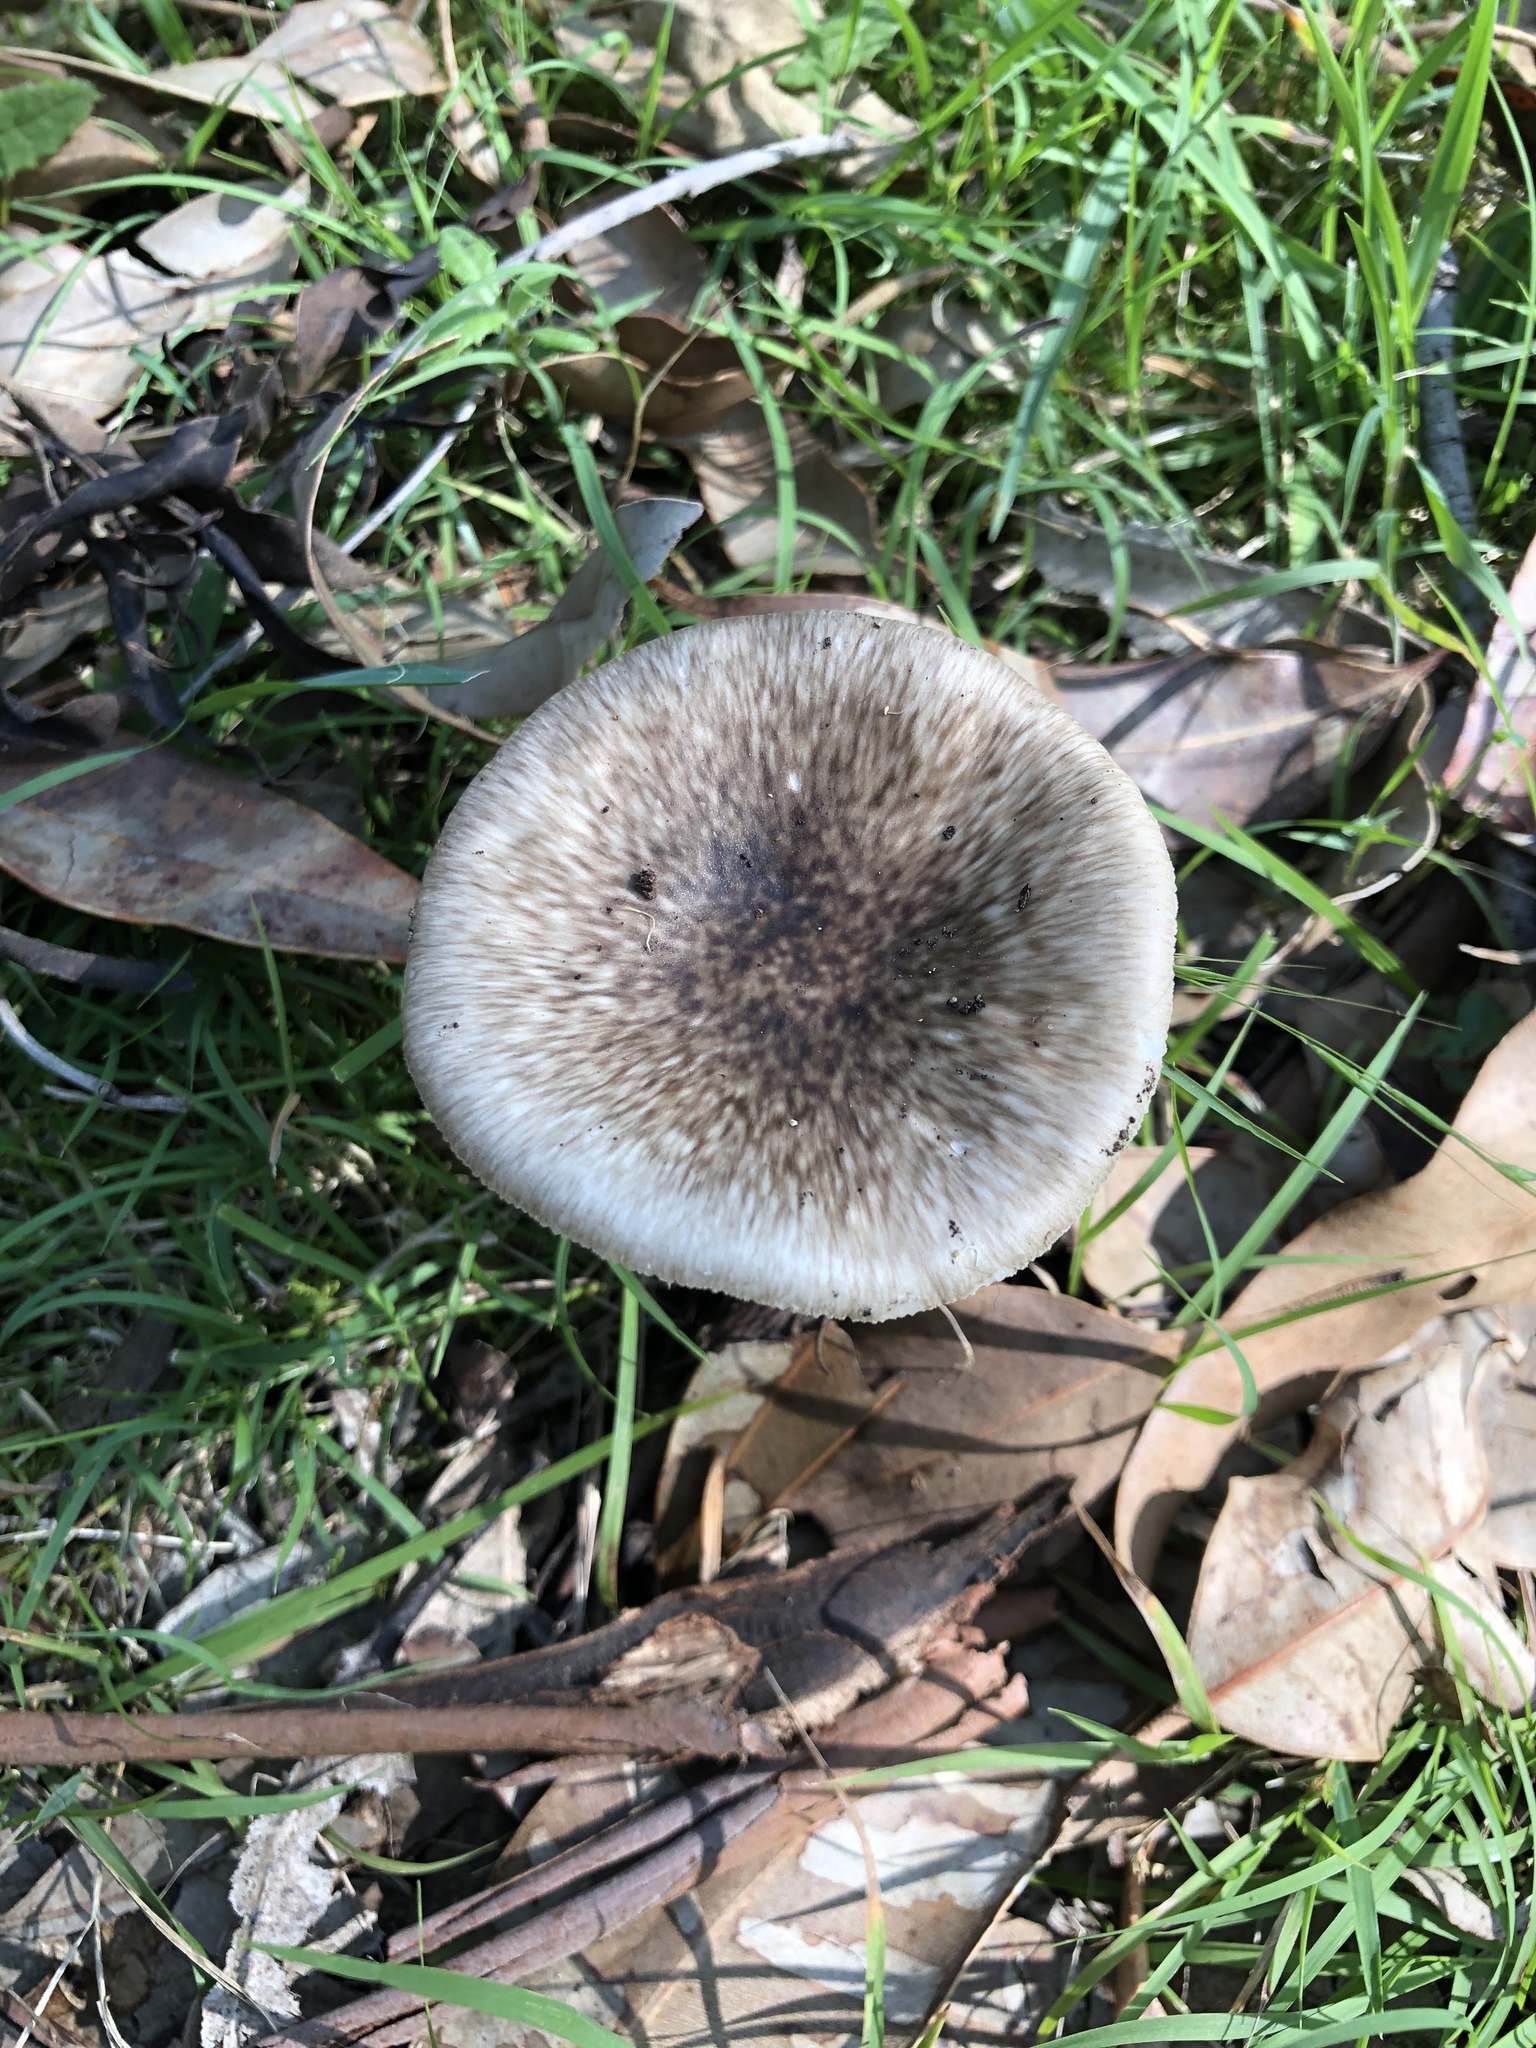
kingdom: Fungi
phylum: Basidiomycota
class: Agaricomycetes
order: Agaricales
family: Amanitaceae
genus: Amanita
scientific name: Amanita marmorata
